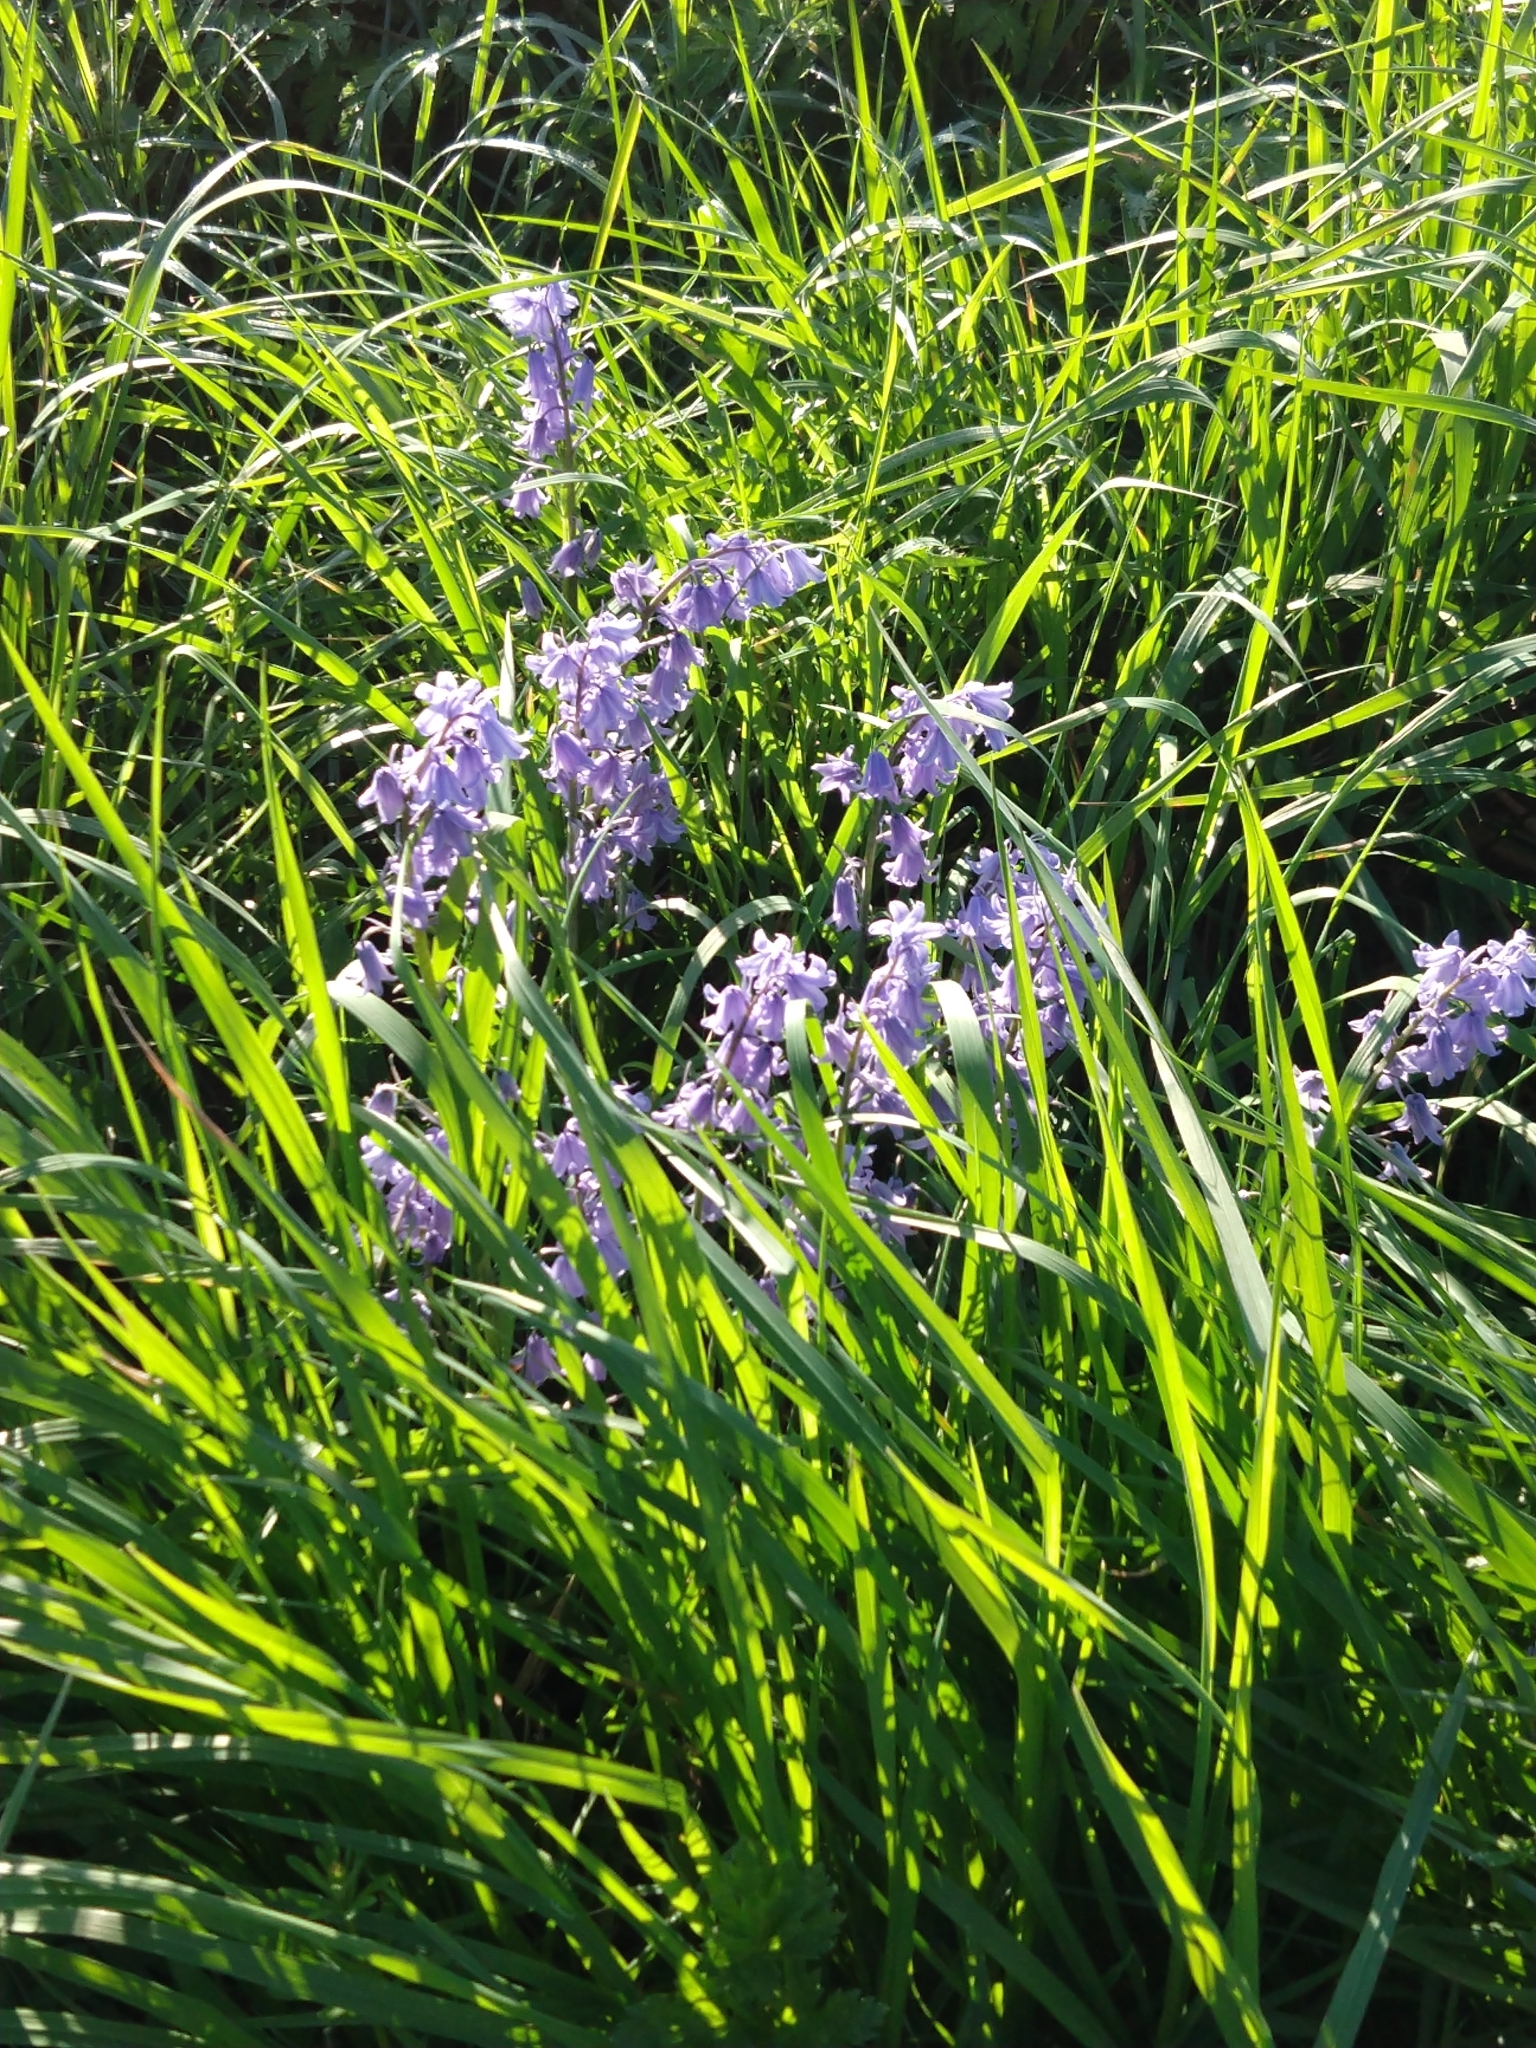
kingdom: Plantae
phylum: Tracheophyta
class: Liliopsida
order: Asparagales
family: Asparagaceae
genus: Hyacinthoides
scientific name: Hyacinthoides massartiana
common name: Hyacinthoides
